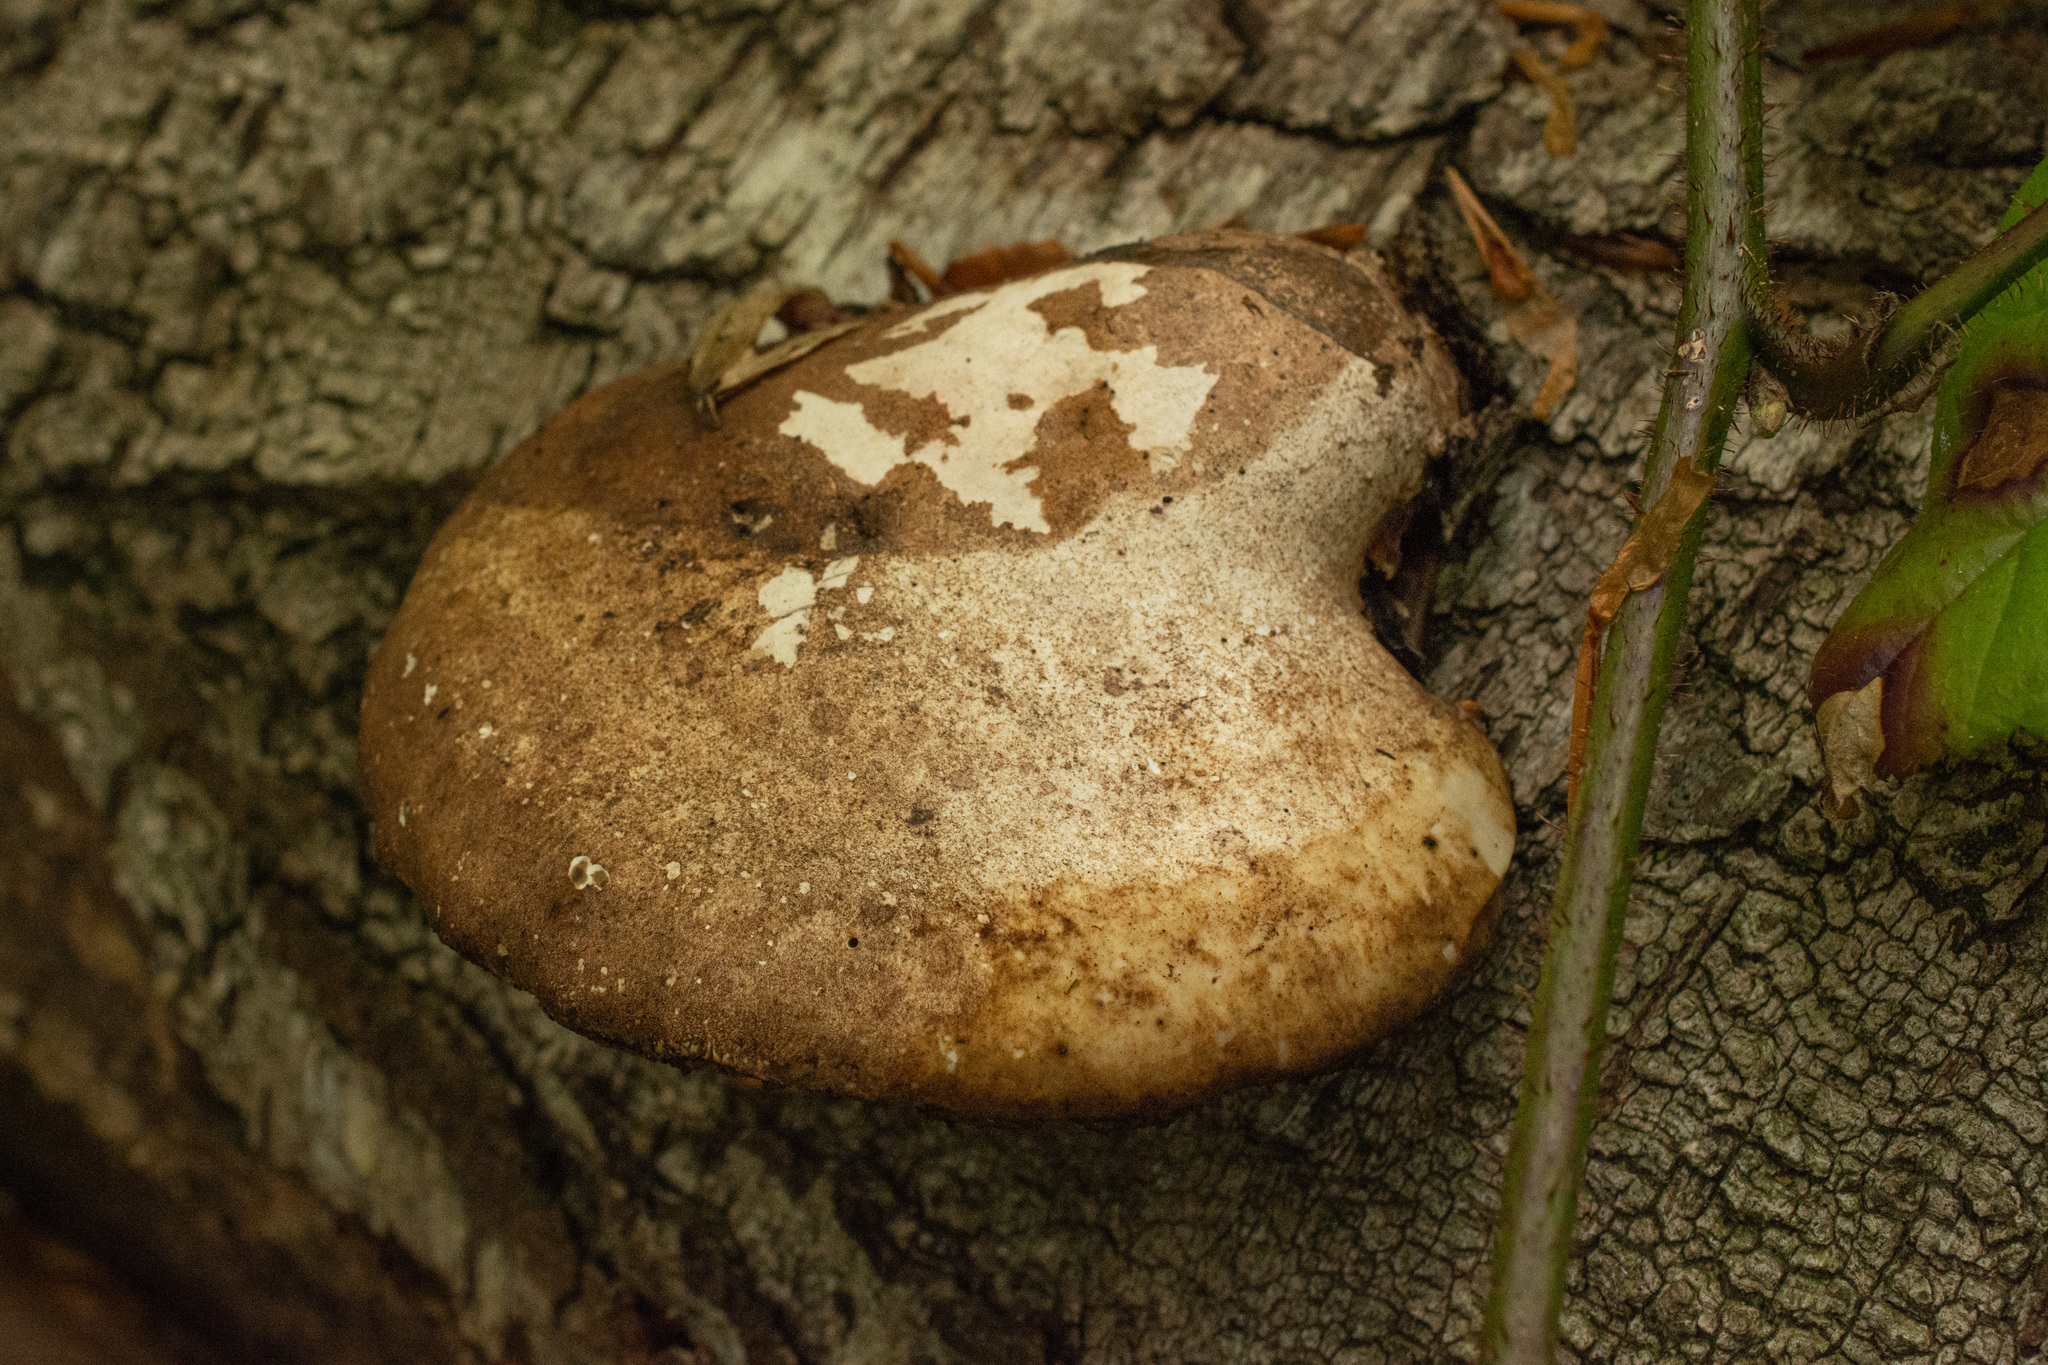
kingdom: Fungi
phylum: Basidiomycota
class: Agaricomycetes
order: Polyporales
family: Fomitopsidaceae
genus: Fomitopsis
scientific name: Fomitopsis betulina
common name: Birch polypore
